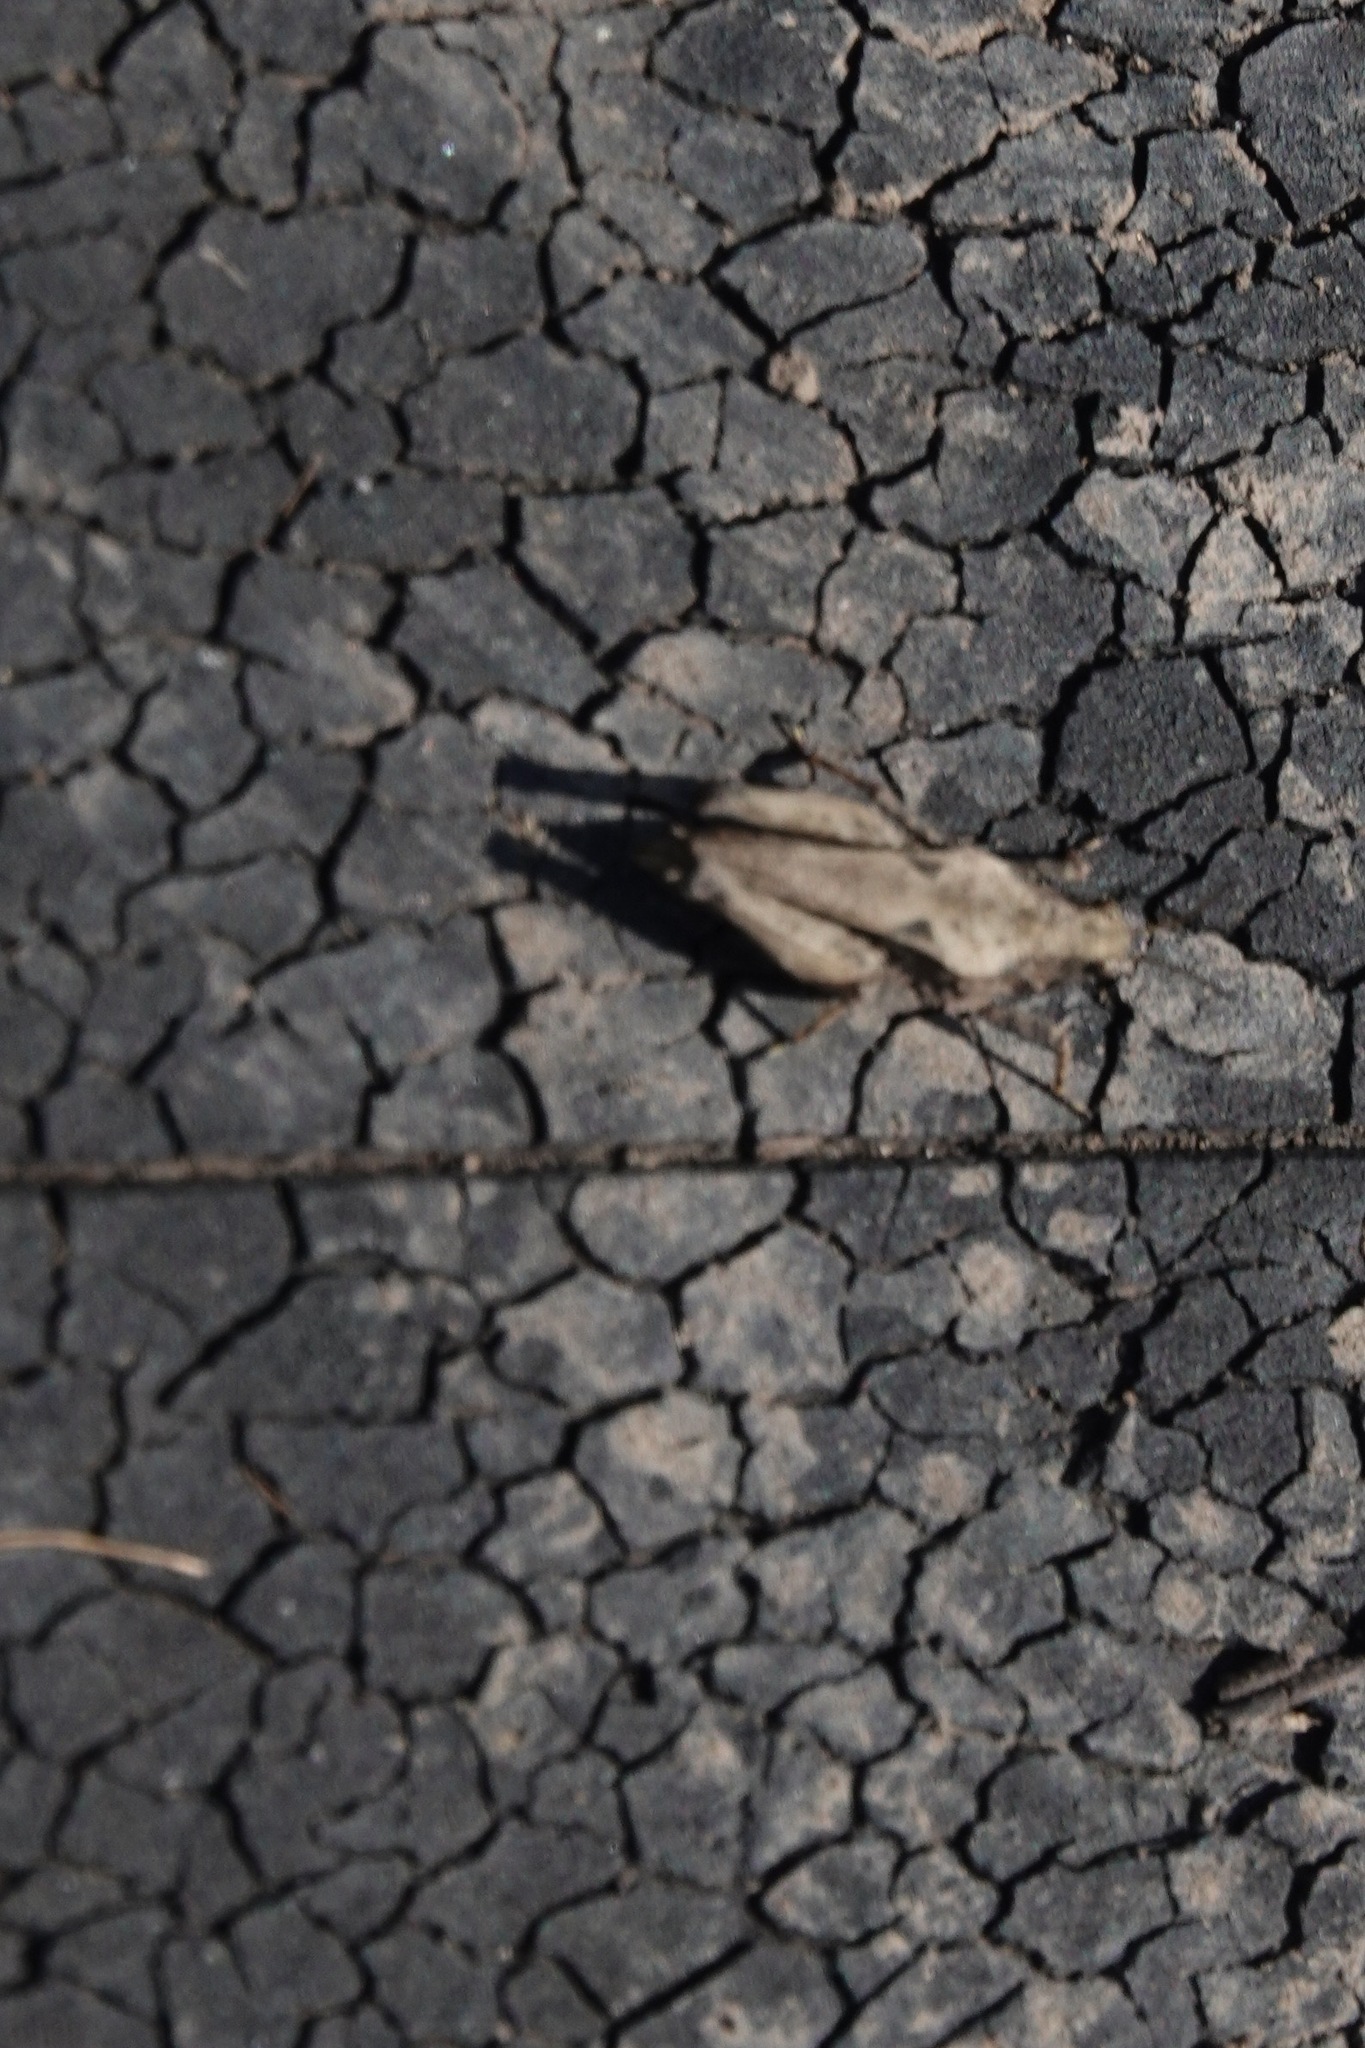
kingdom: Animalia
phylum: Arthropoda
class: Insecta
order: Orthoptera
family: Tetrigidae
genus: Tetrix
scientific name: Tetrix undulata
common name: Common groundhopper
